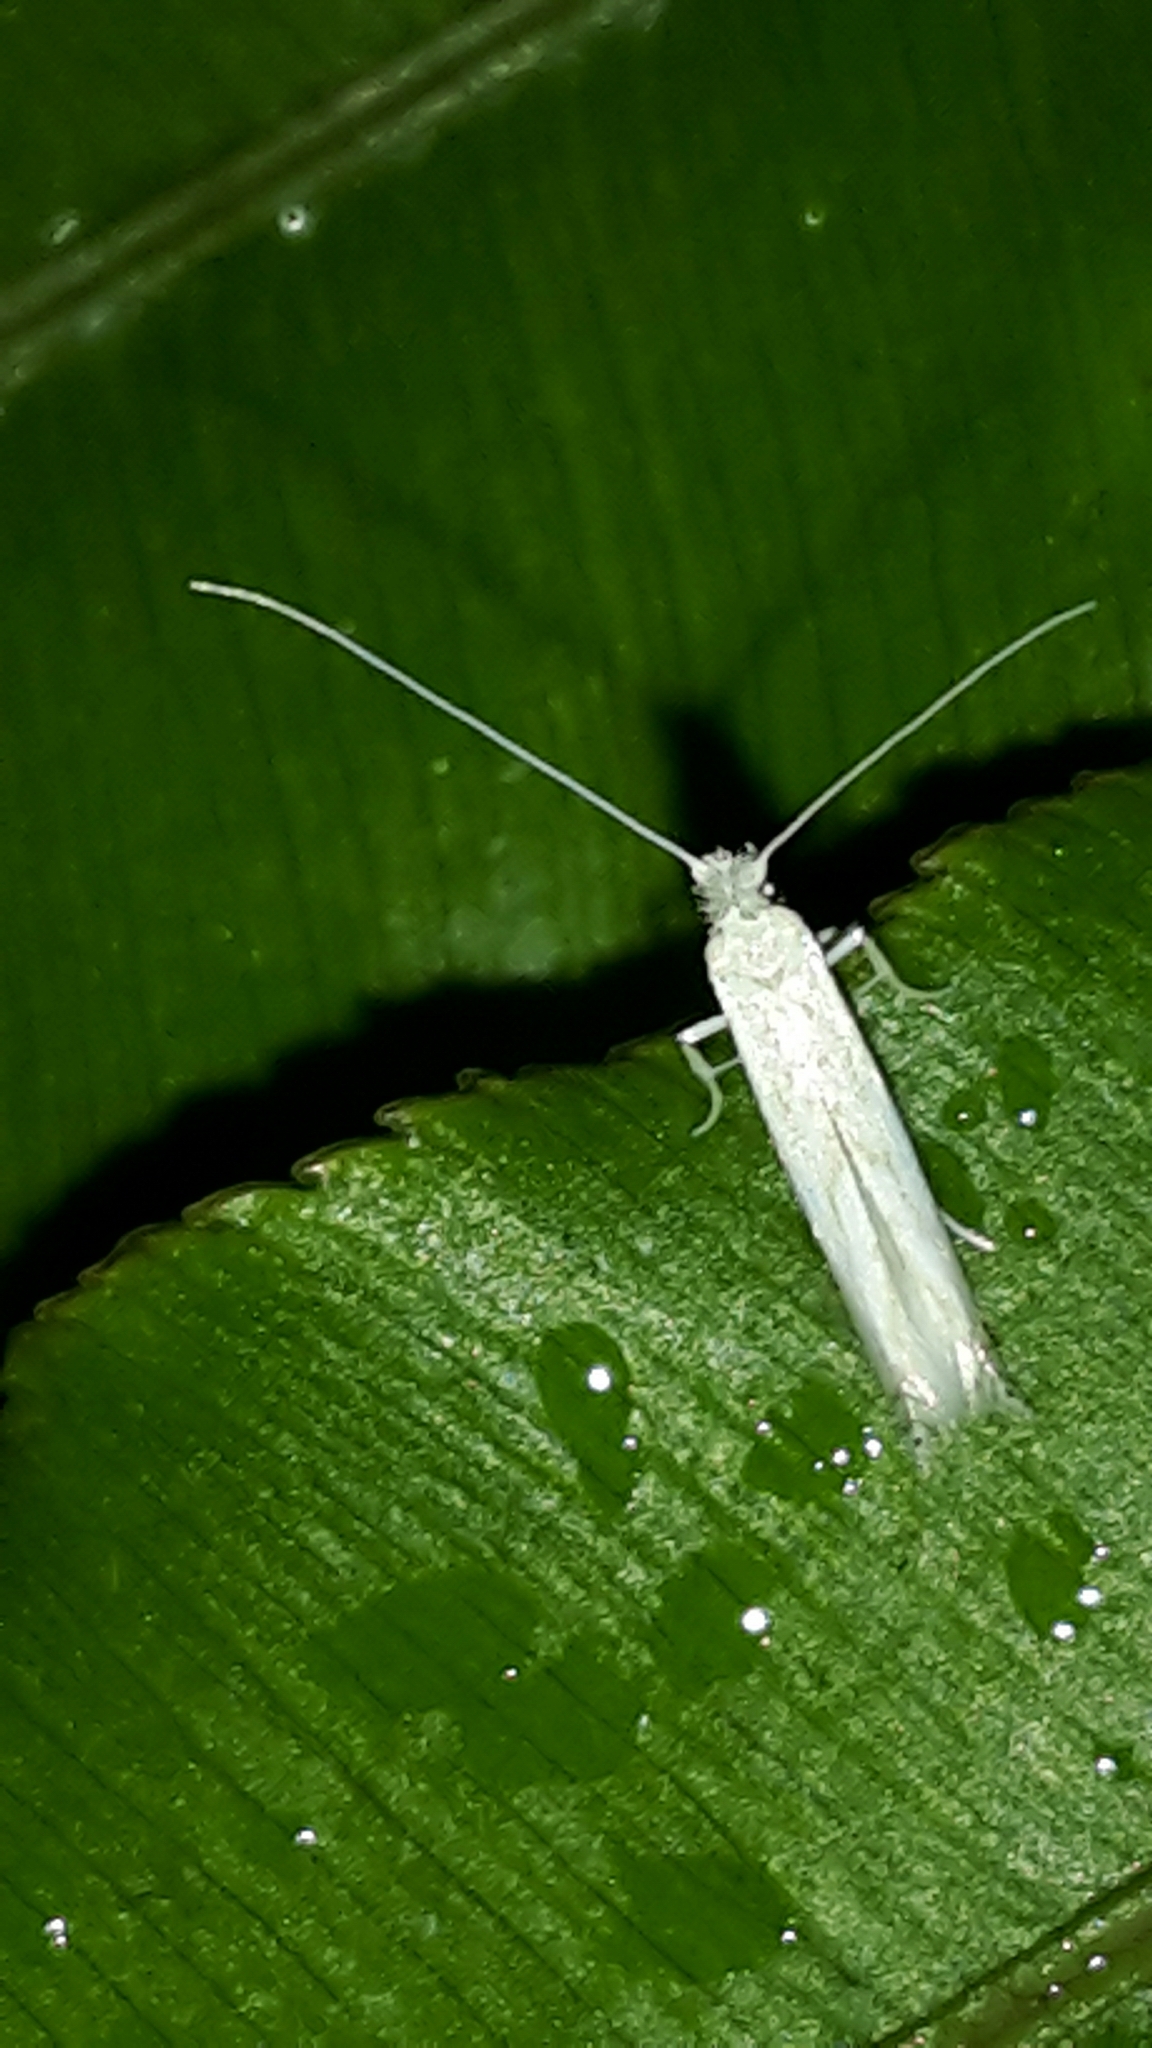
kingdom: Animalia
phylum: Arthropoda
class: Insecta
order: Lepidoptera
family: Lyonetiidae
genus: Stegommata
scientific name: Stegommata sulfuratella
